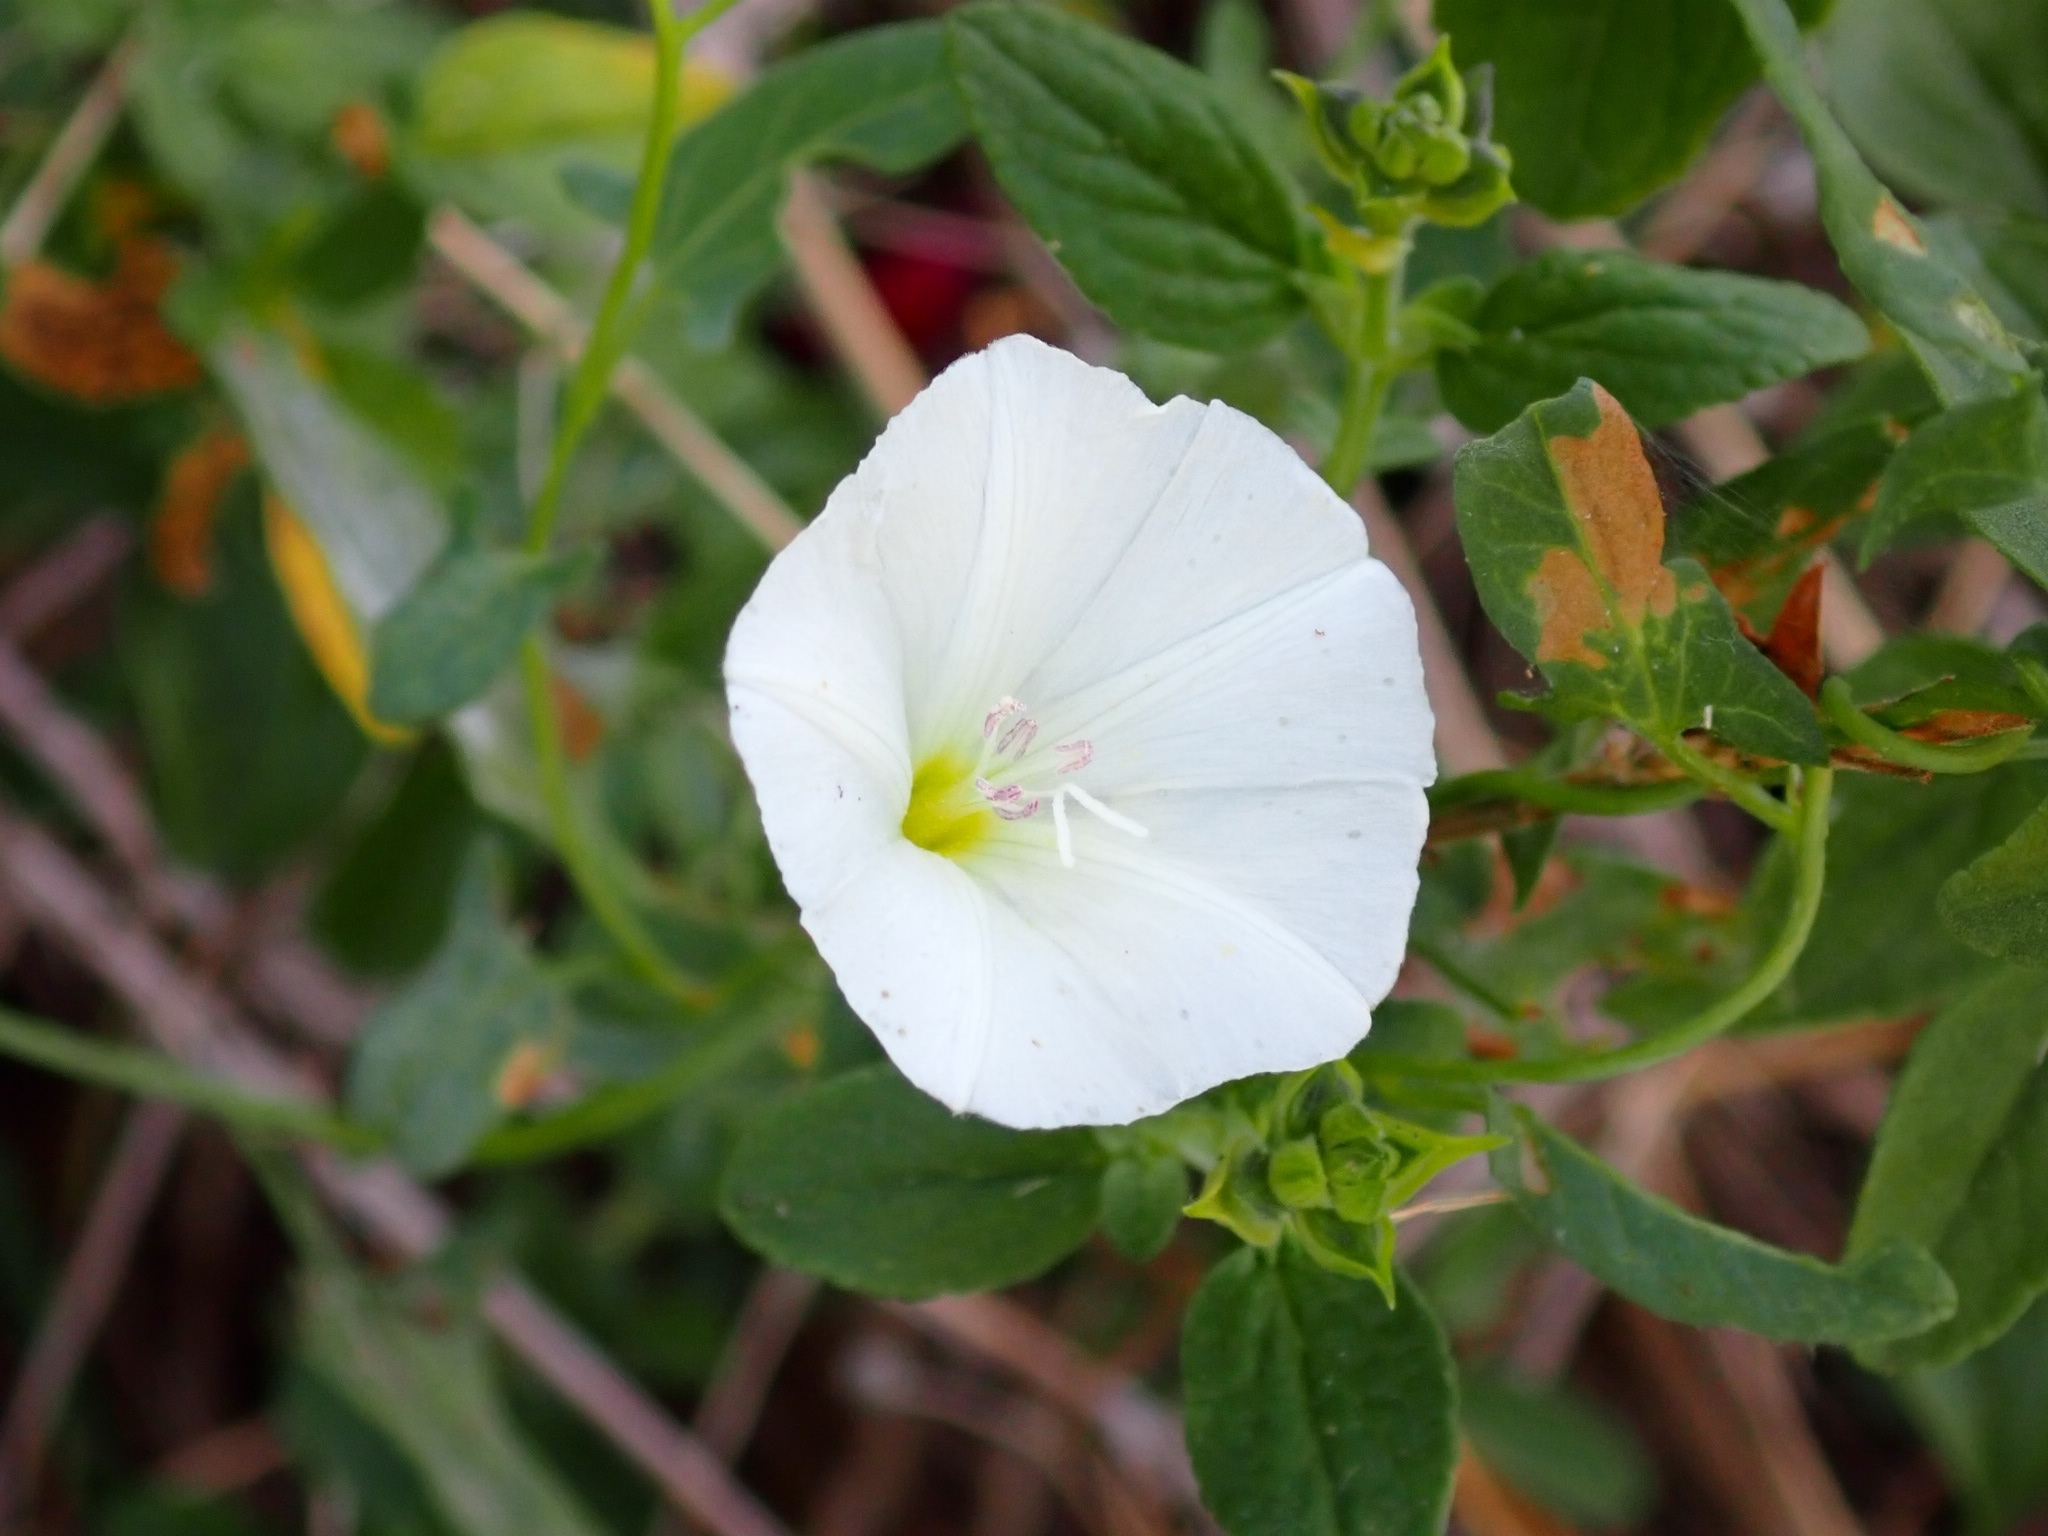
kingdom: Plantae
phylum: Tracheophyta
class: Magnoliopsida
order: Solanales
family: Convolvulaceae
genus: Convolvulus
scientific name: Convolvulus arvensis
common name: Field bindweed
